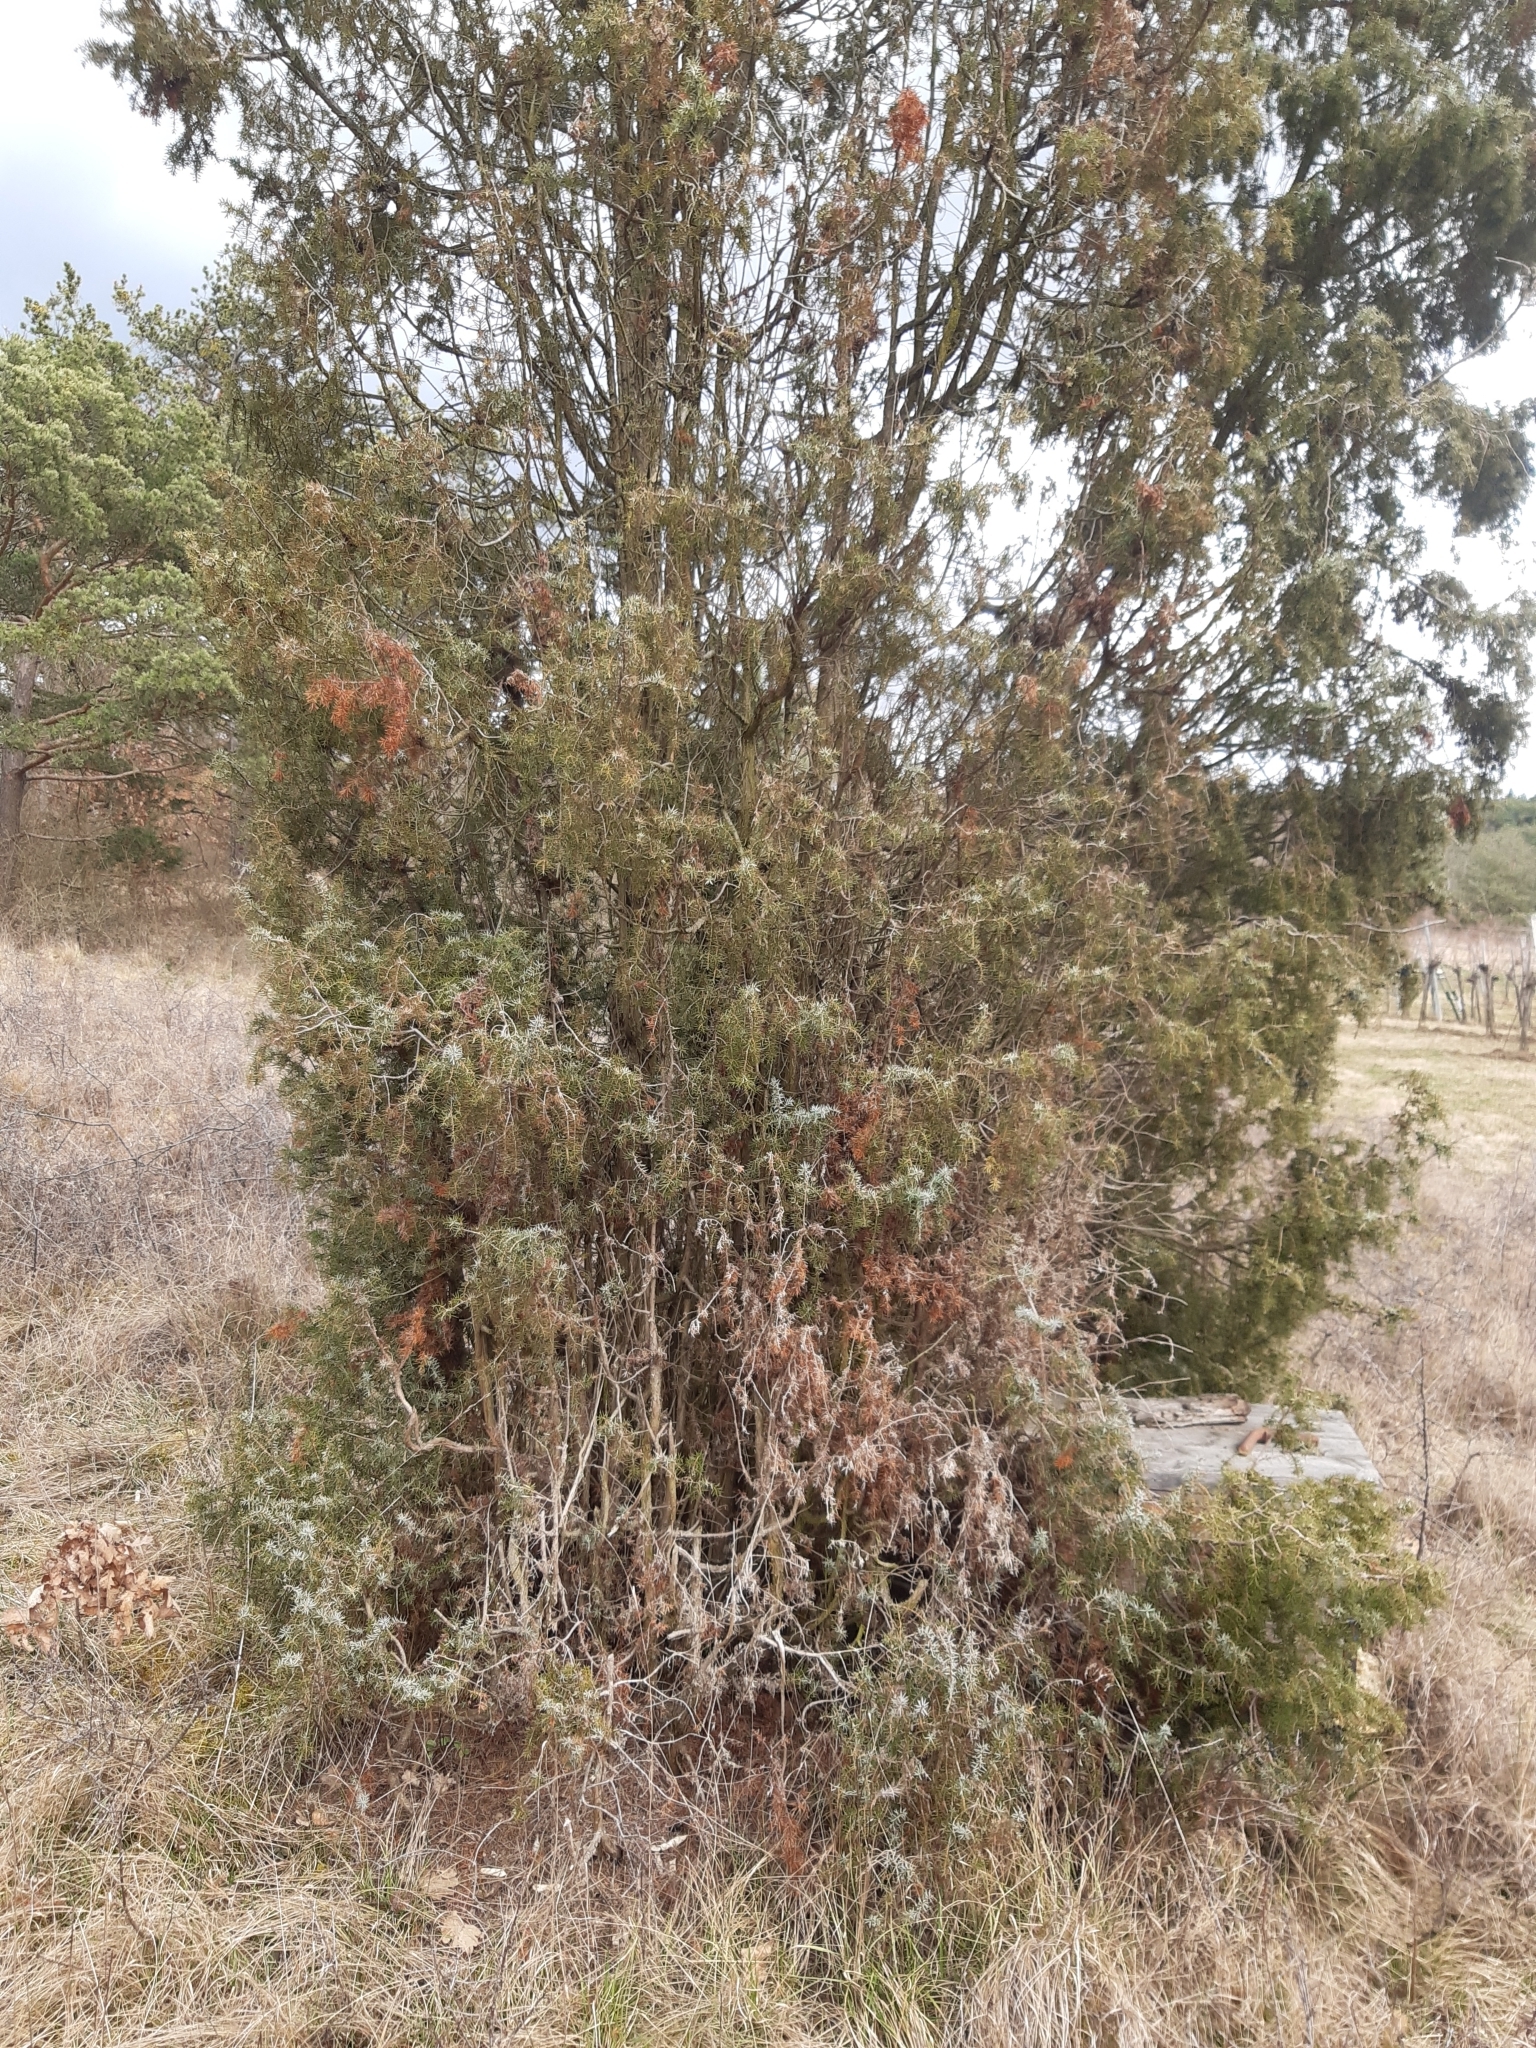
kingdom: Plantae
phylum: Tracheophyta
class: Pinopsida
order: Pinales
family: Cupressaceae
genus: Juniperus
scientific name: Juniperus communis
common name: Common juniper
